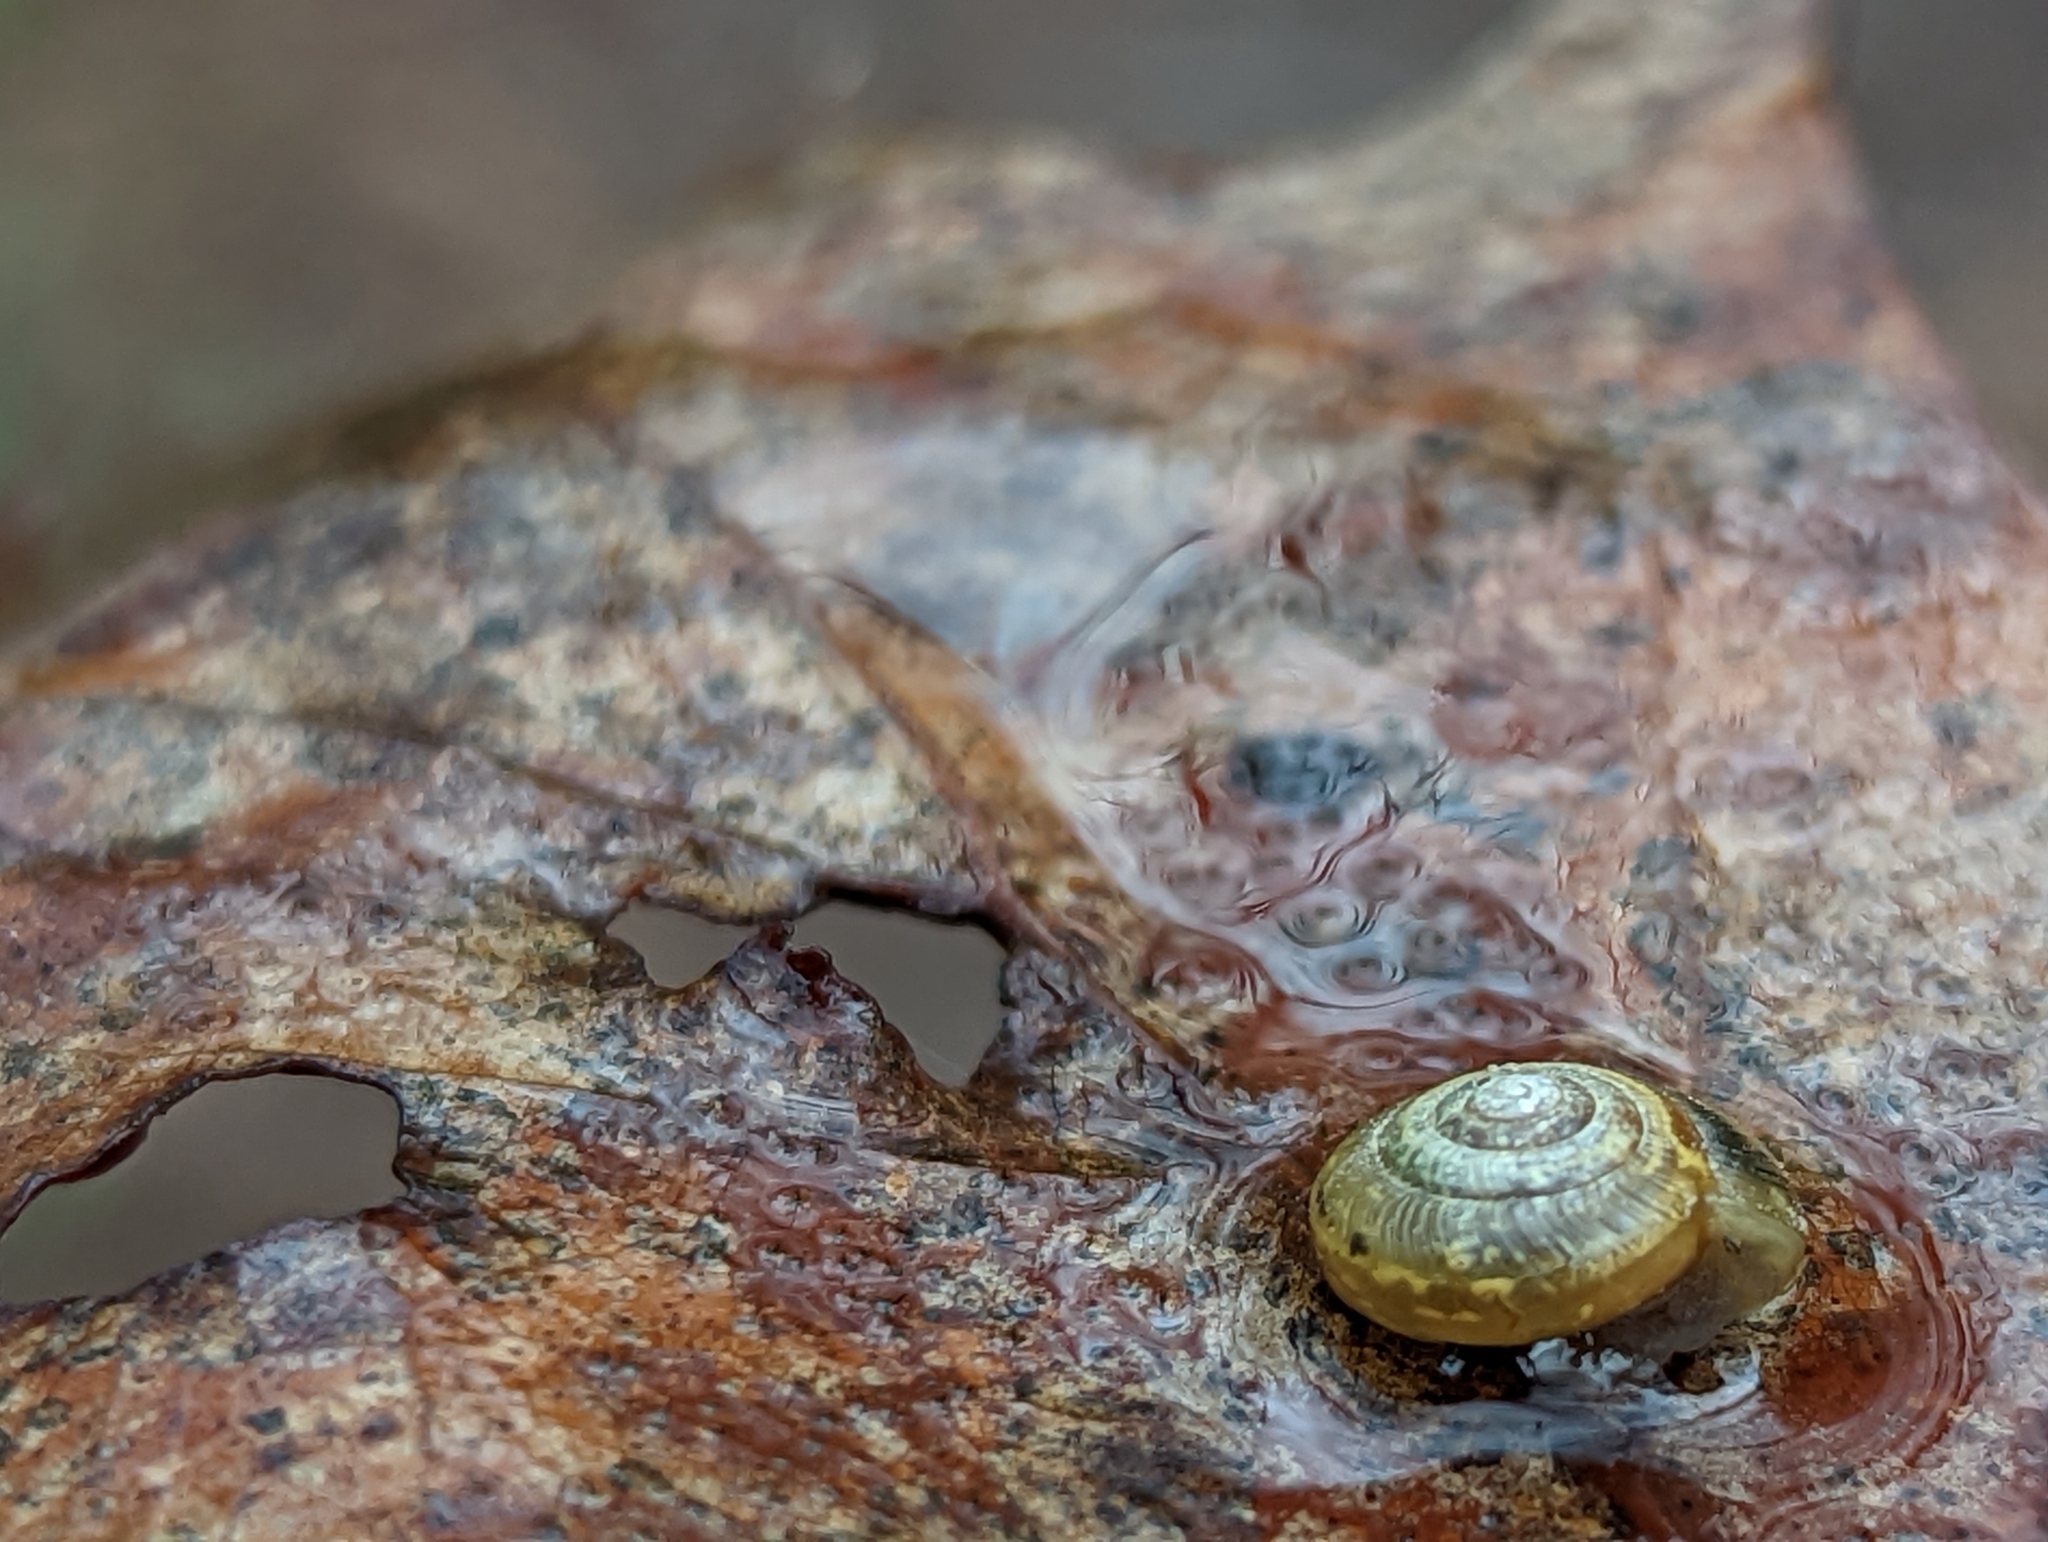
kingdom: Animalia
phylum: Mollusca
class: Gastropoda
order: Stylommatophora
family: Gastrodontidae
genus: Ventridens
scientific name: Ventridens ligera
